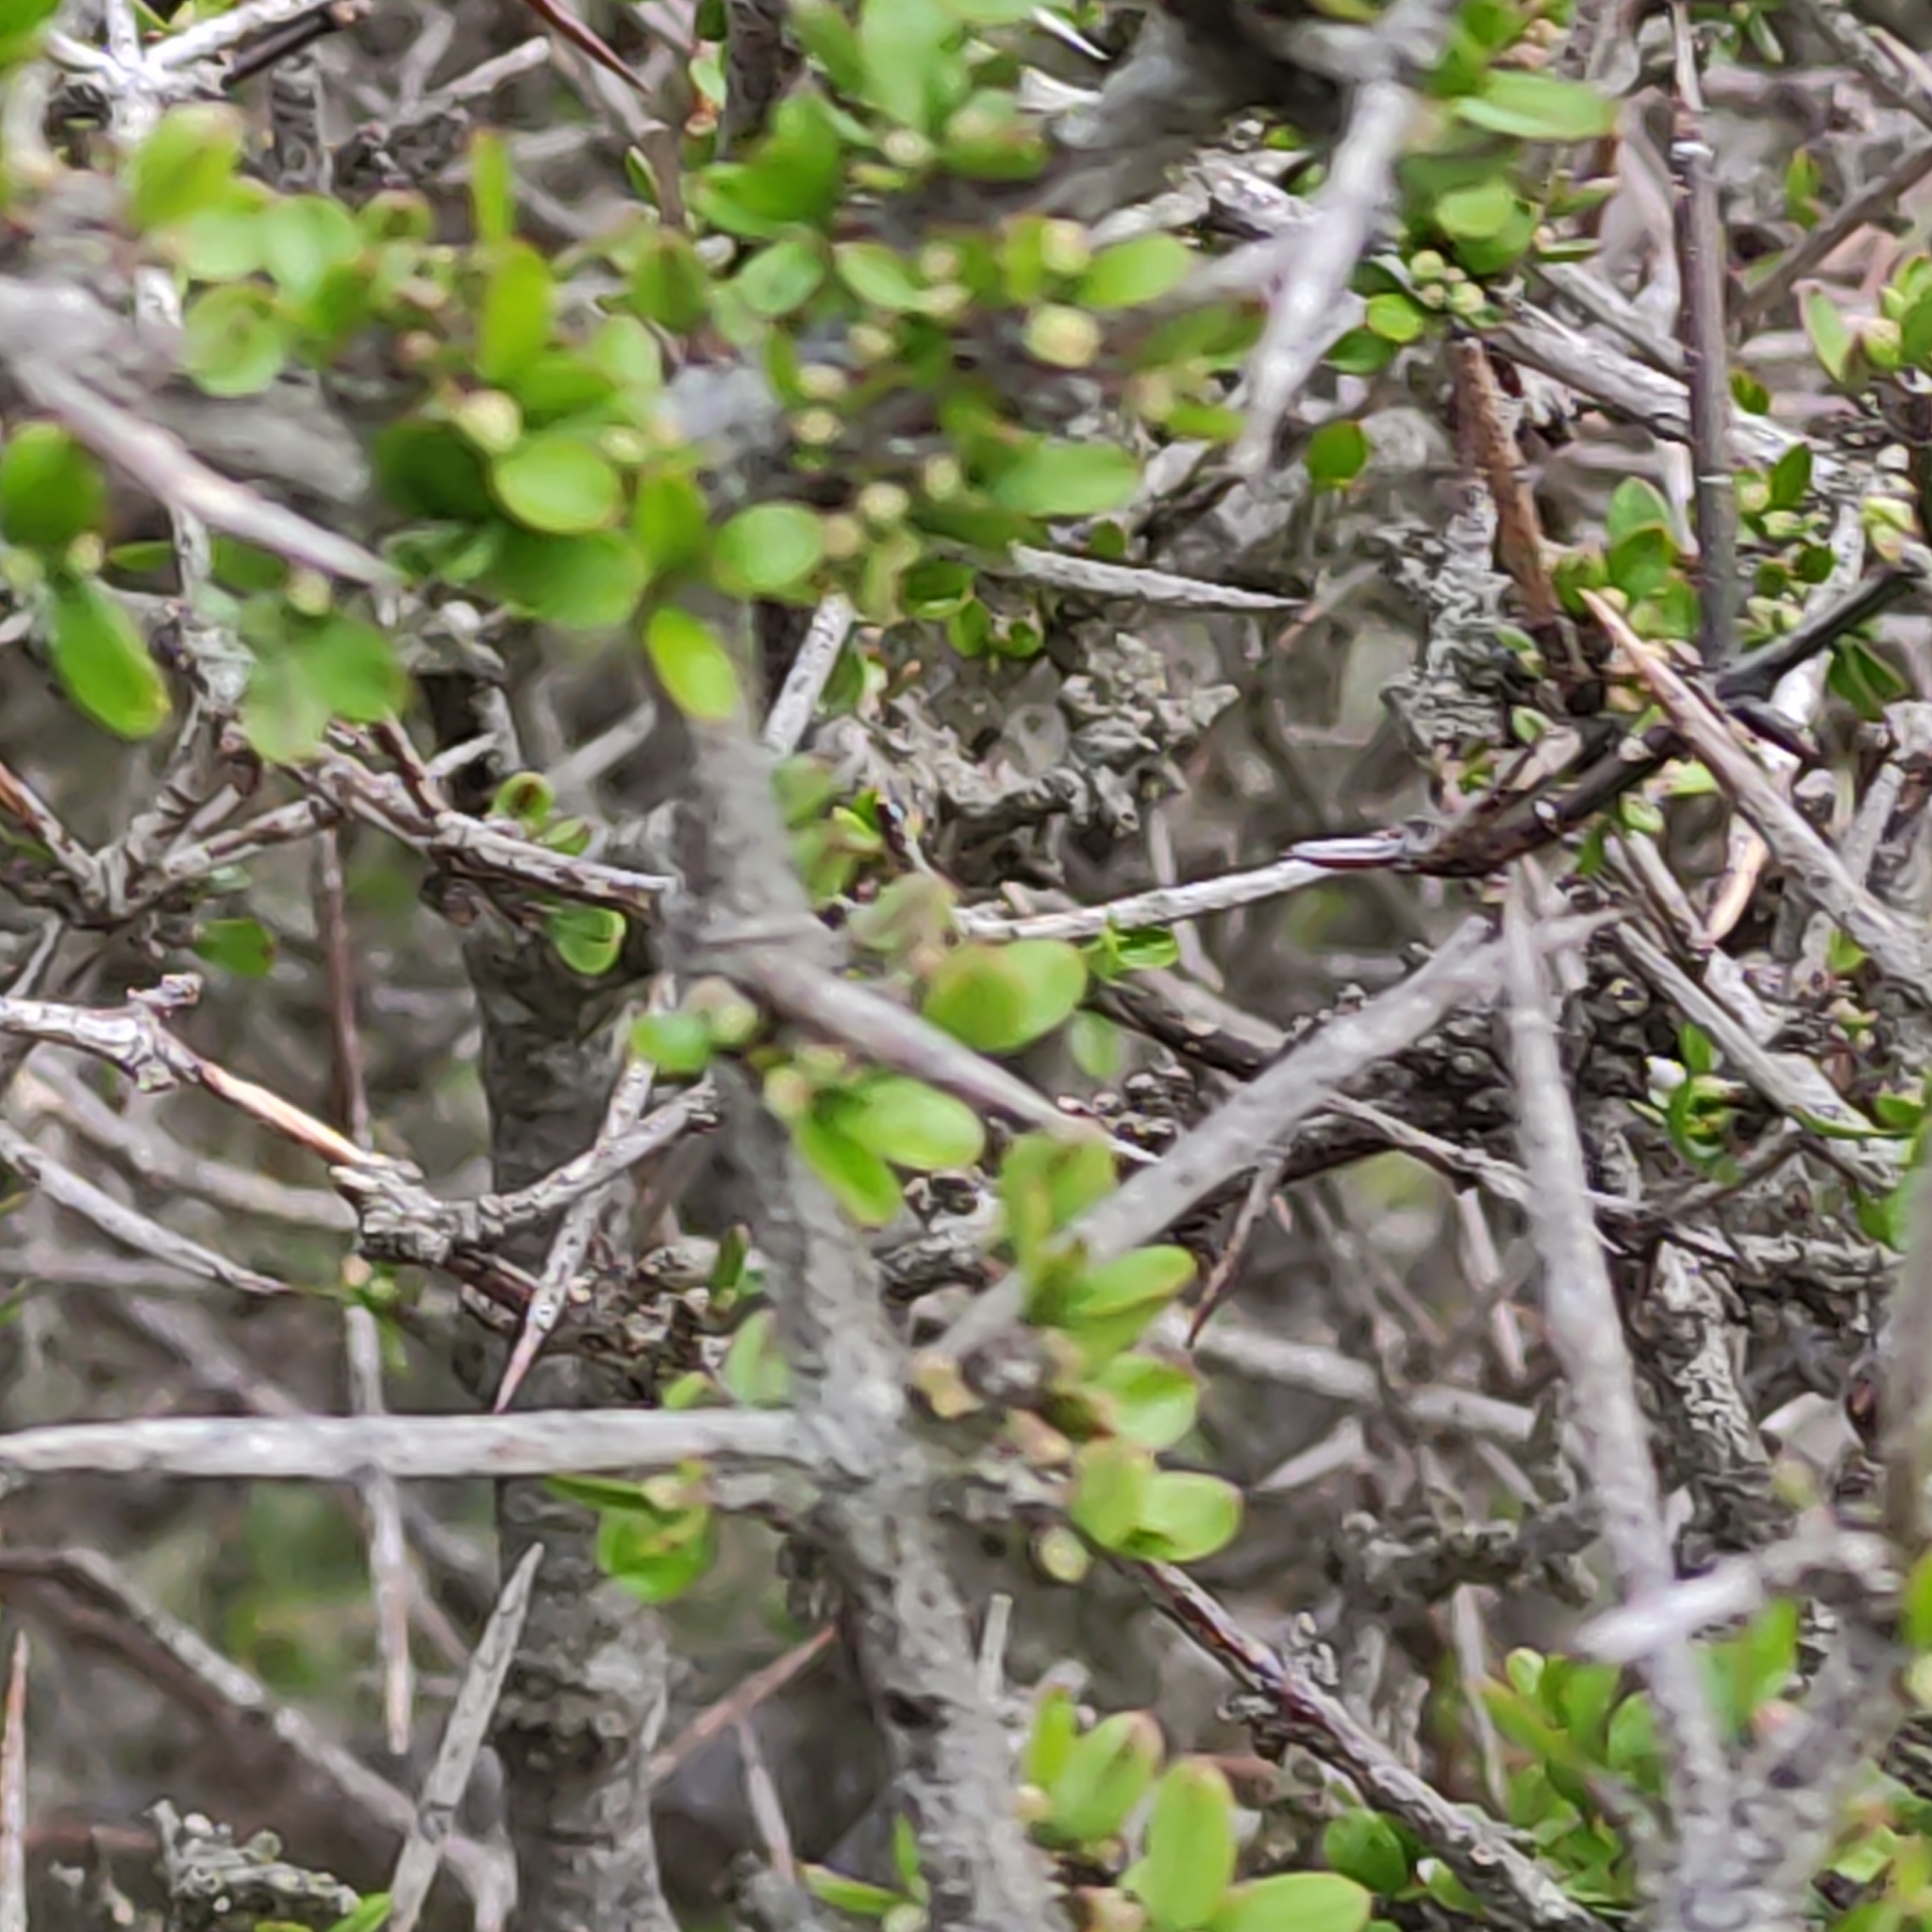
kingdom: Plantae
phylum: Tracheophyta
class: Magnoliopsida
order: Rosales
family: Rhamnaceae
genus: Discaria
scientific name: Discaria toumatou
